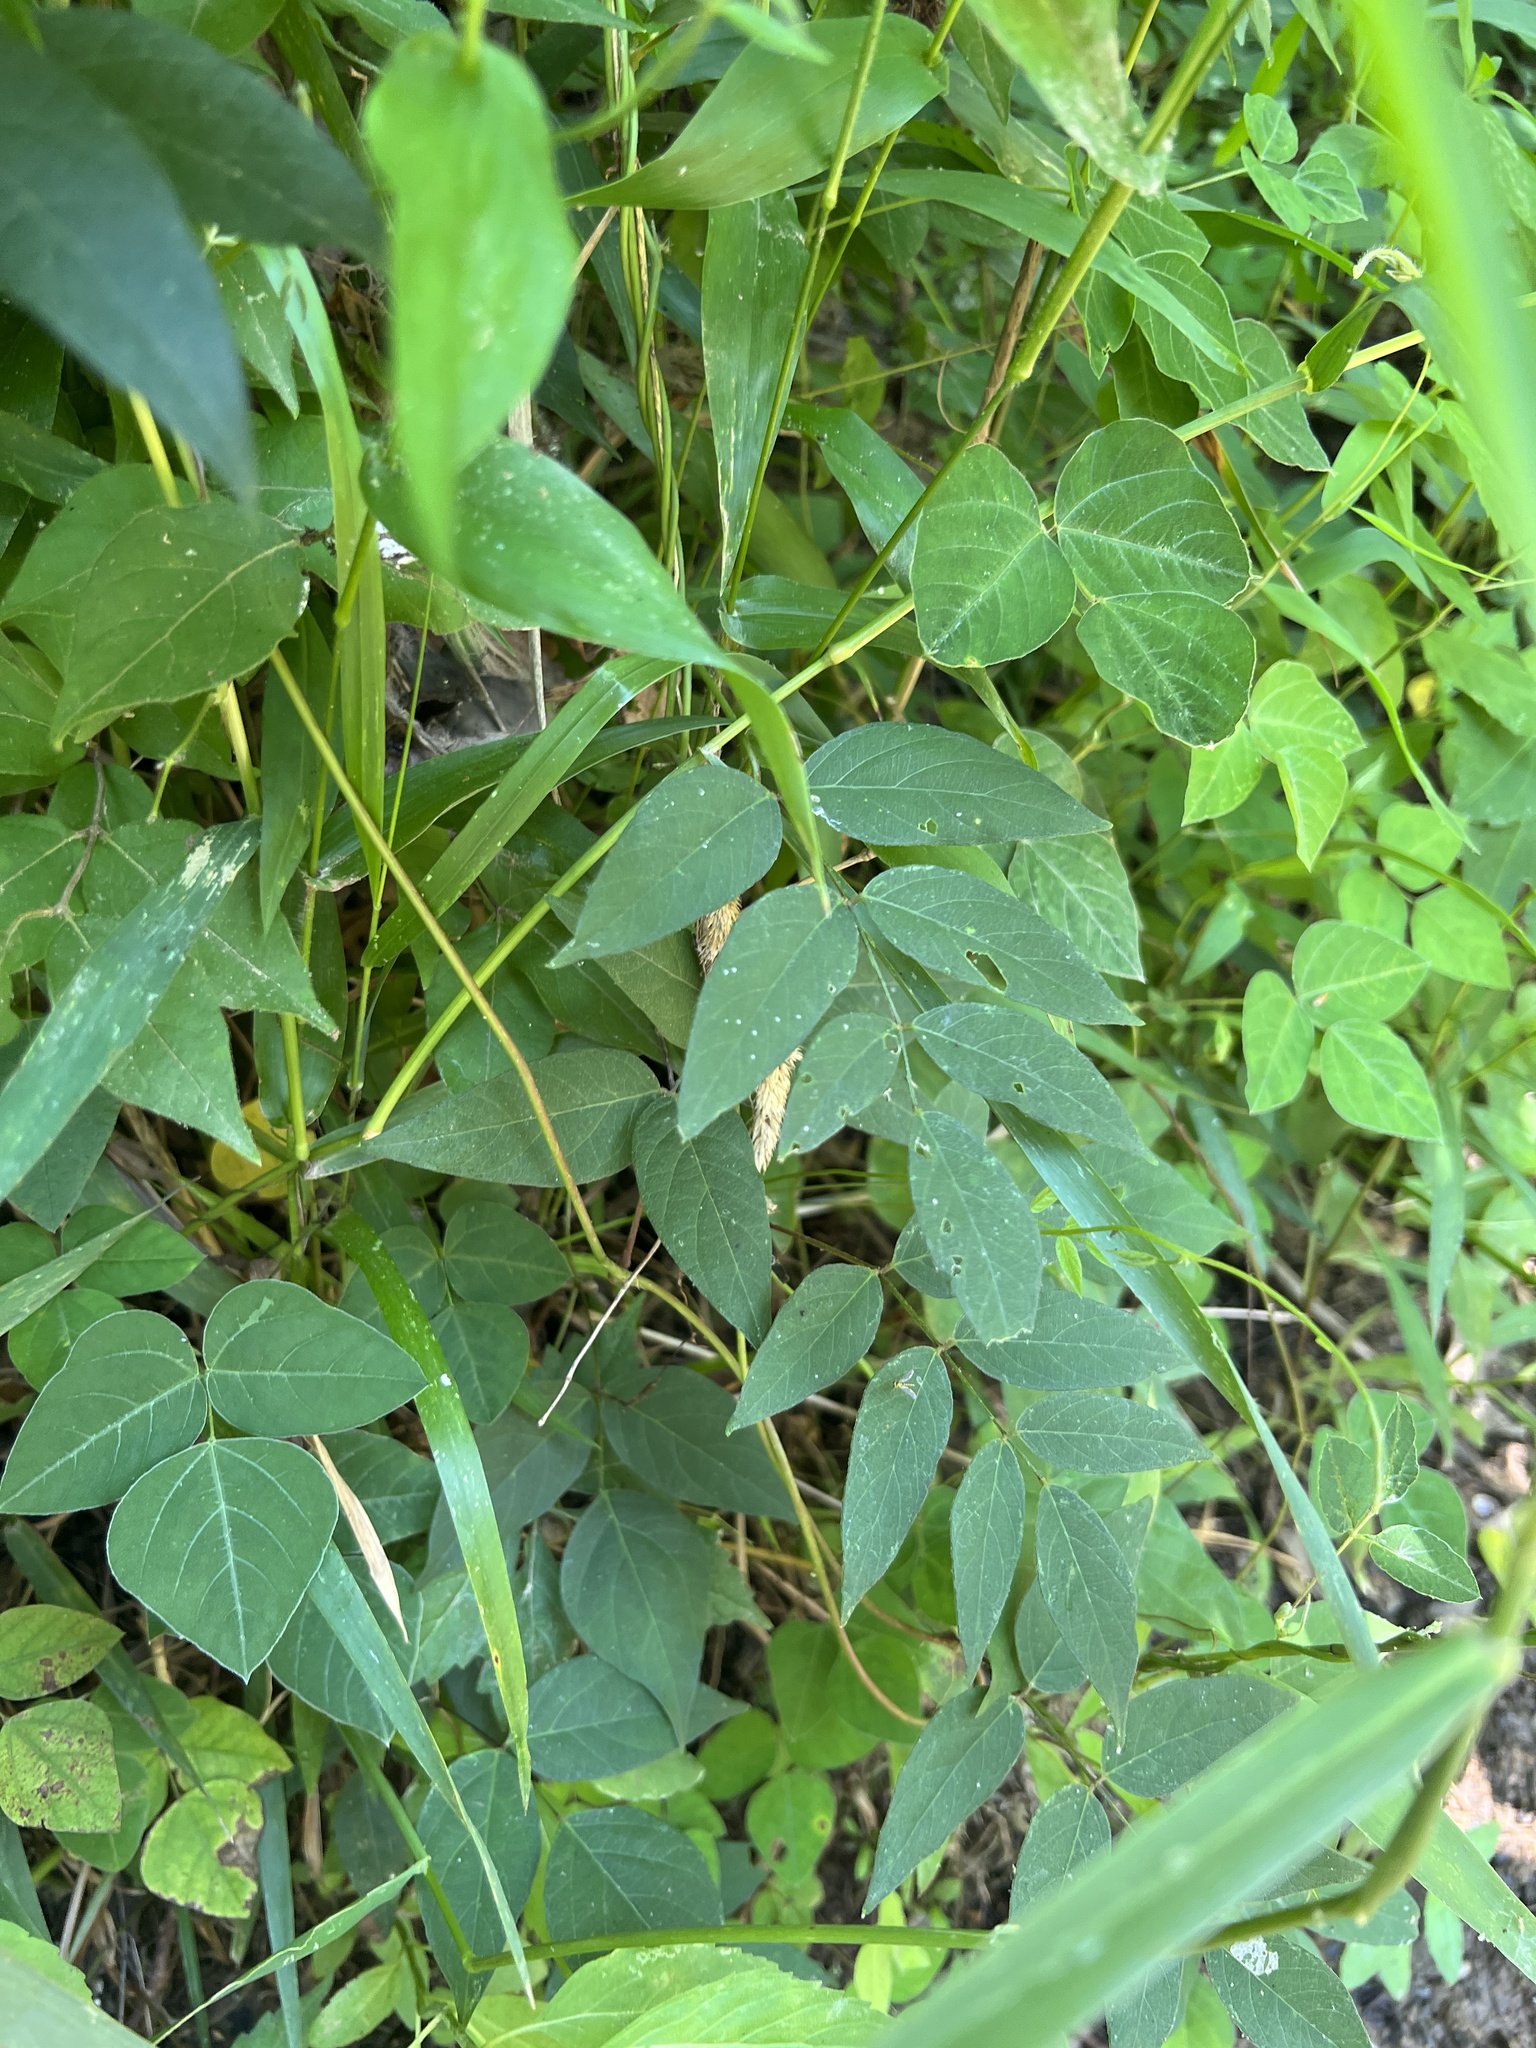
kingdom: Plantae
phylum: Tracheophyta
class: Magnoliopsida
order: Fabales
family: Fabaceae
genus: Apios
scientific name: Apios americana
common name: American potato-bean
